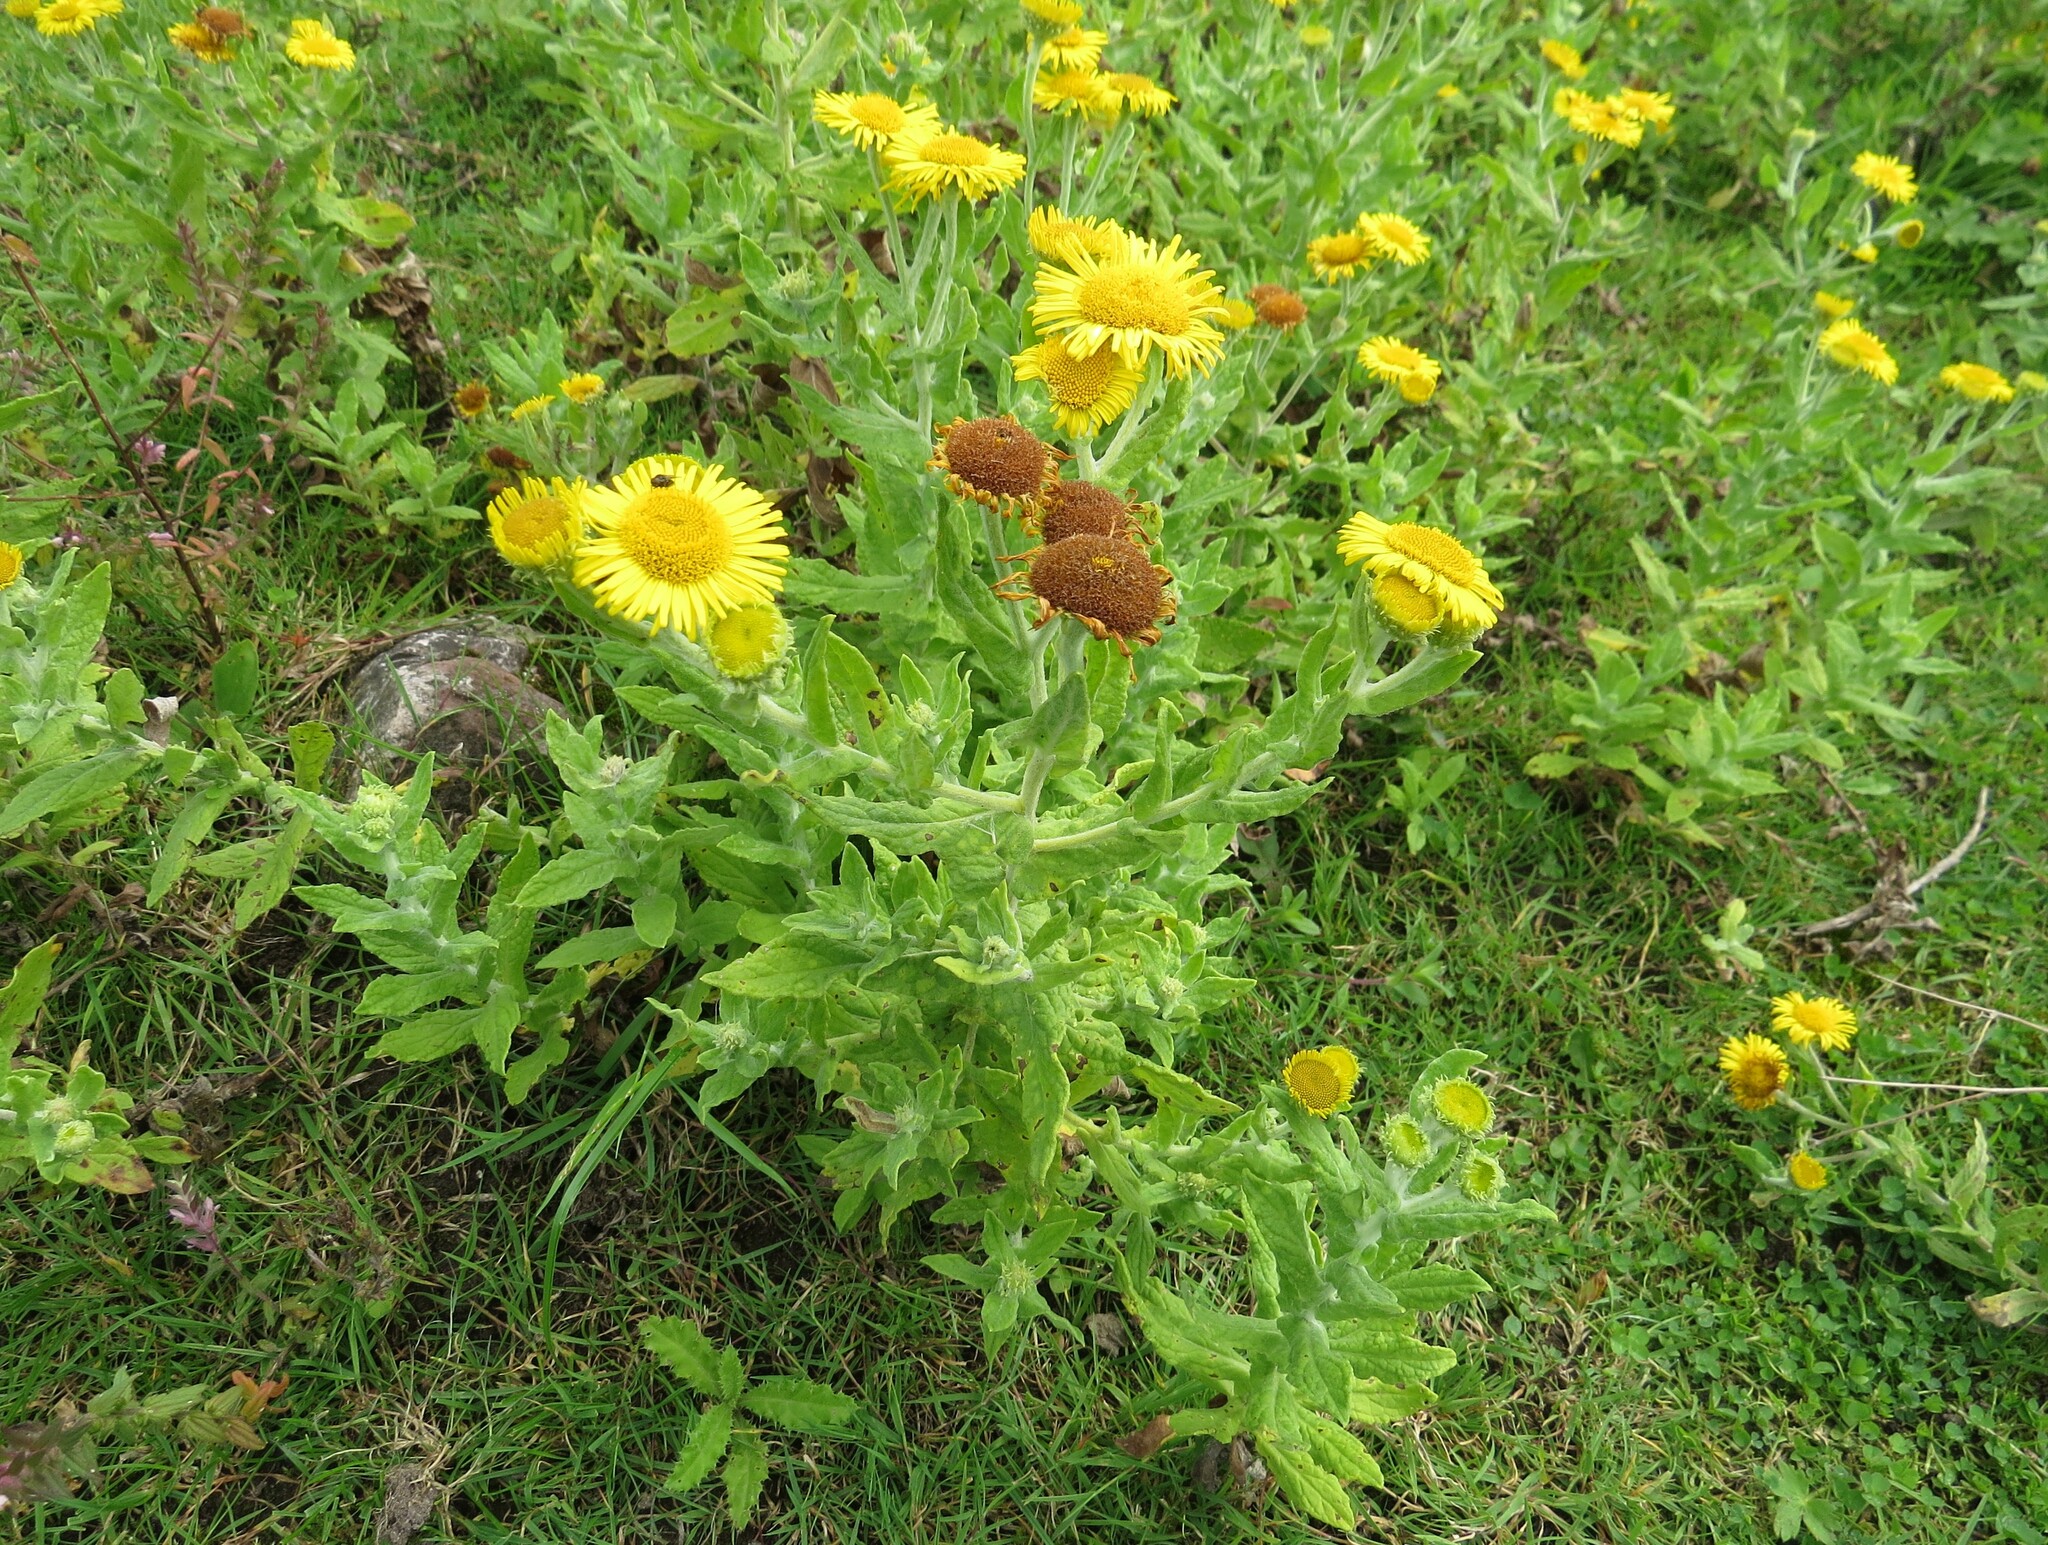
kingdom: Plantae
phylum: Tracheophyta
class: Magnoliopsida
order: Asterales
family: Asteraceae
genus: Pulicaria
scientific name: Pulicaria dysenterica
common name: Common fleabane
